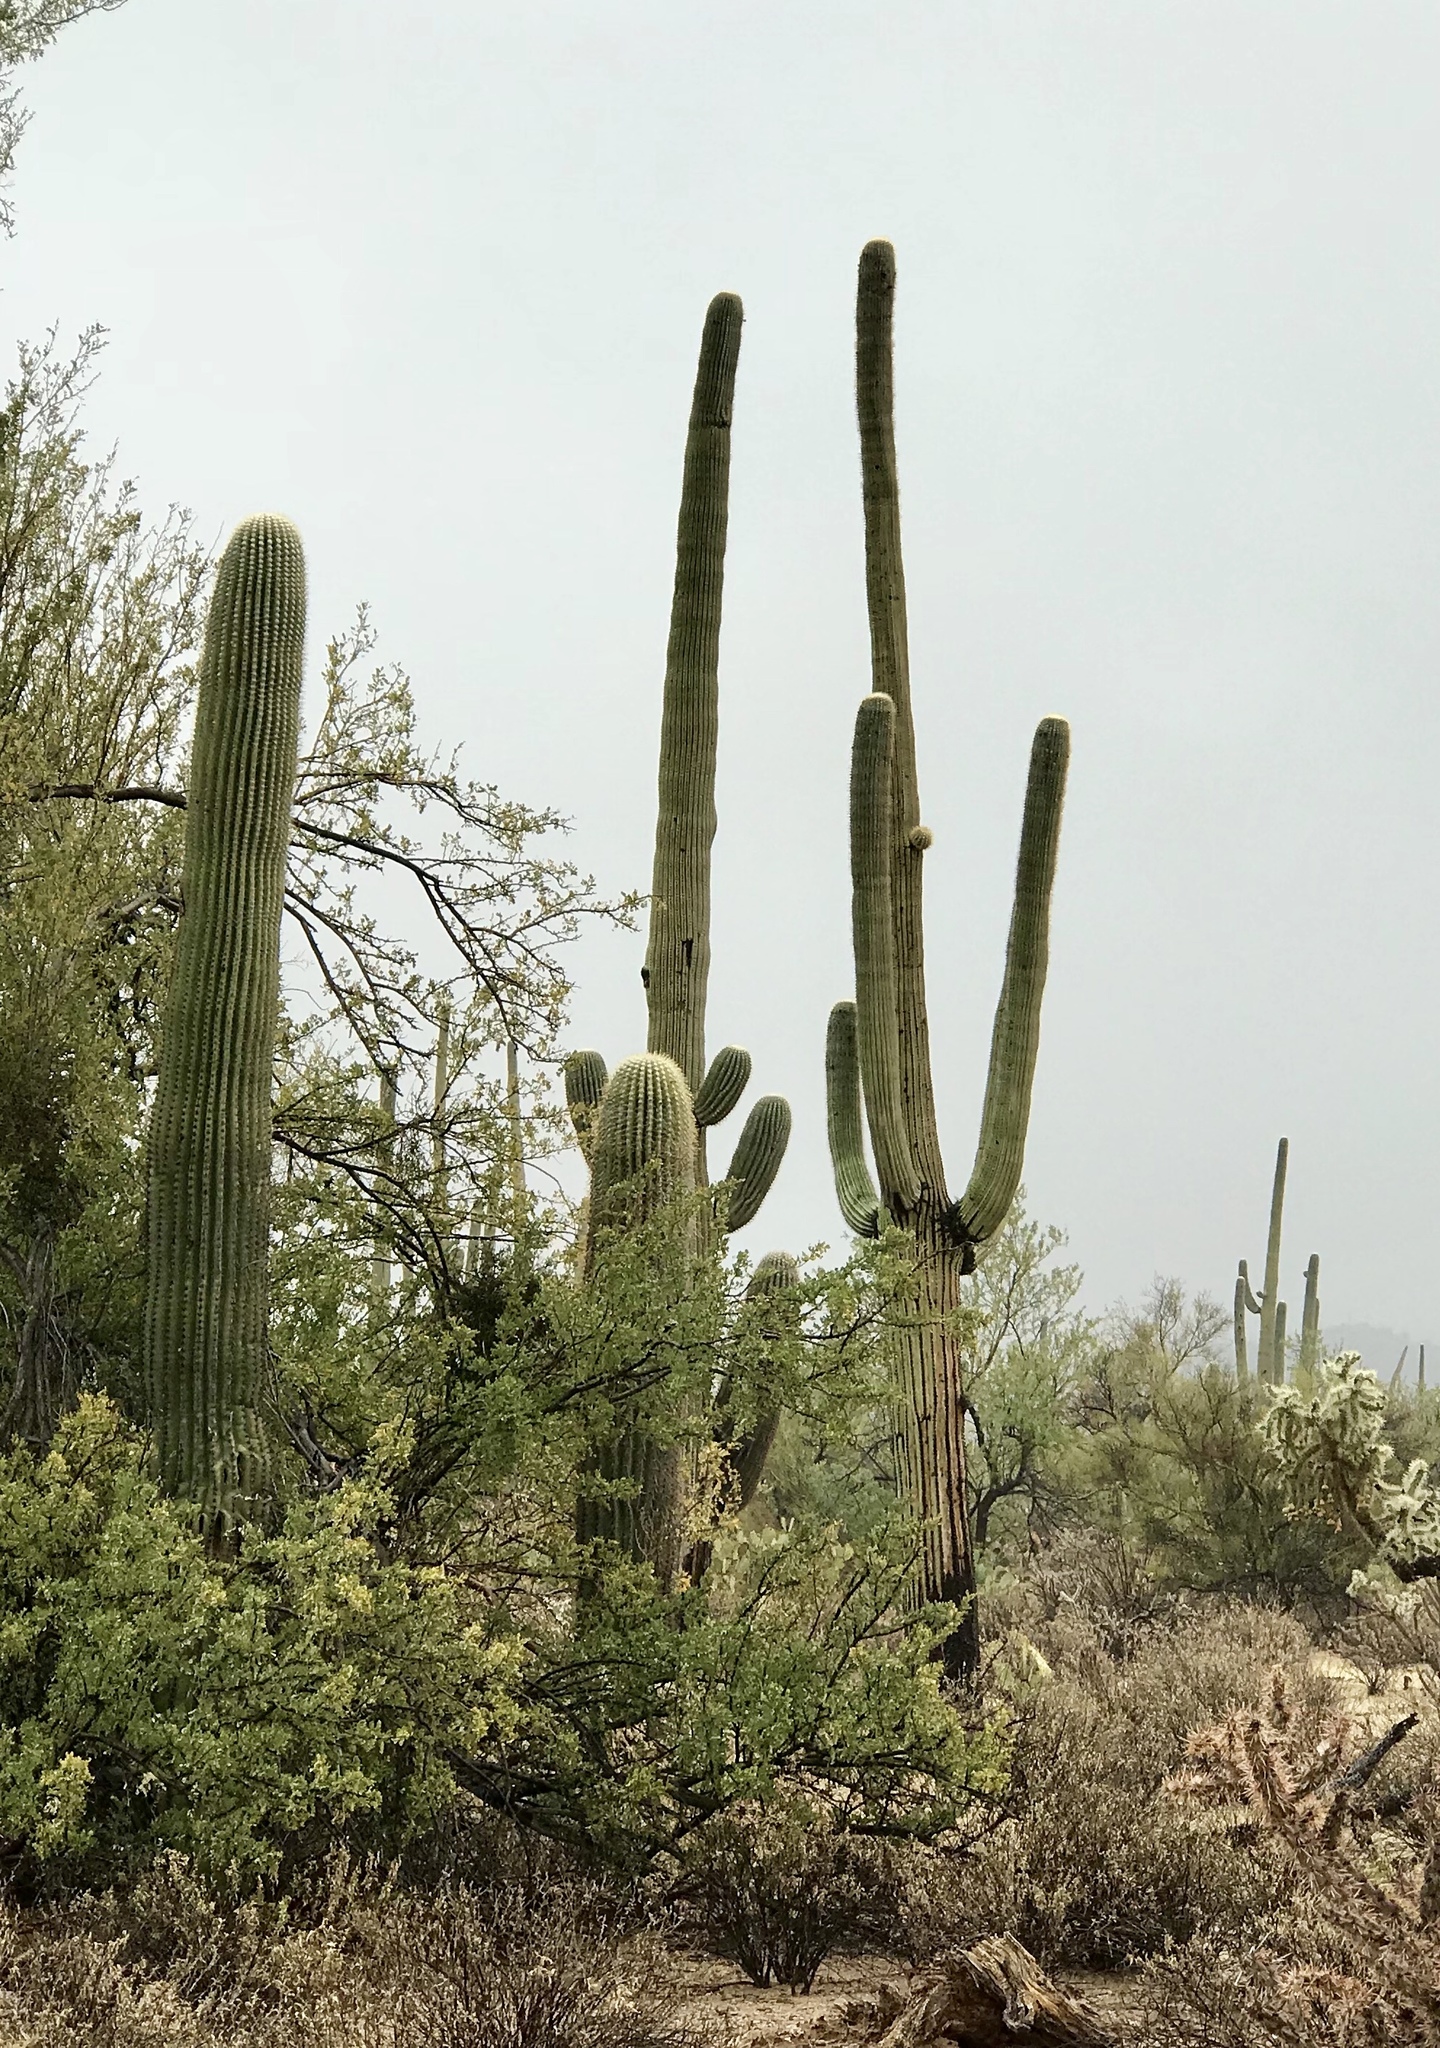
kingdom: Plantae
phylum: Tracheophyta
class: Magnoliopsida
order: Caryophyllales
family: Cactaceae
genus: Carnegiea
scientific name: Carnegiea gigantea
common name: Saguaro
